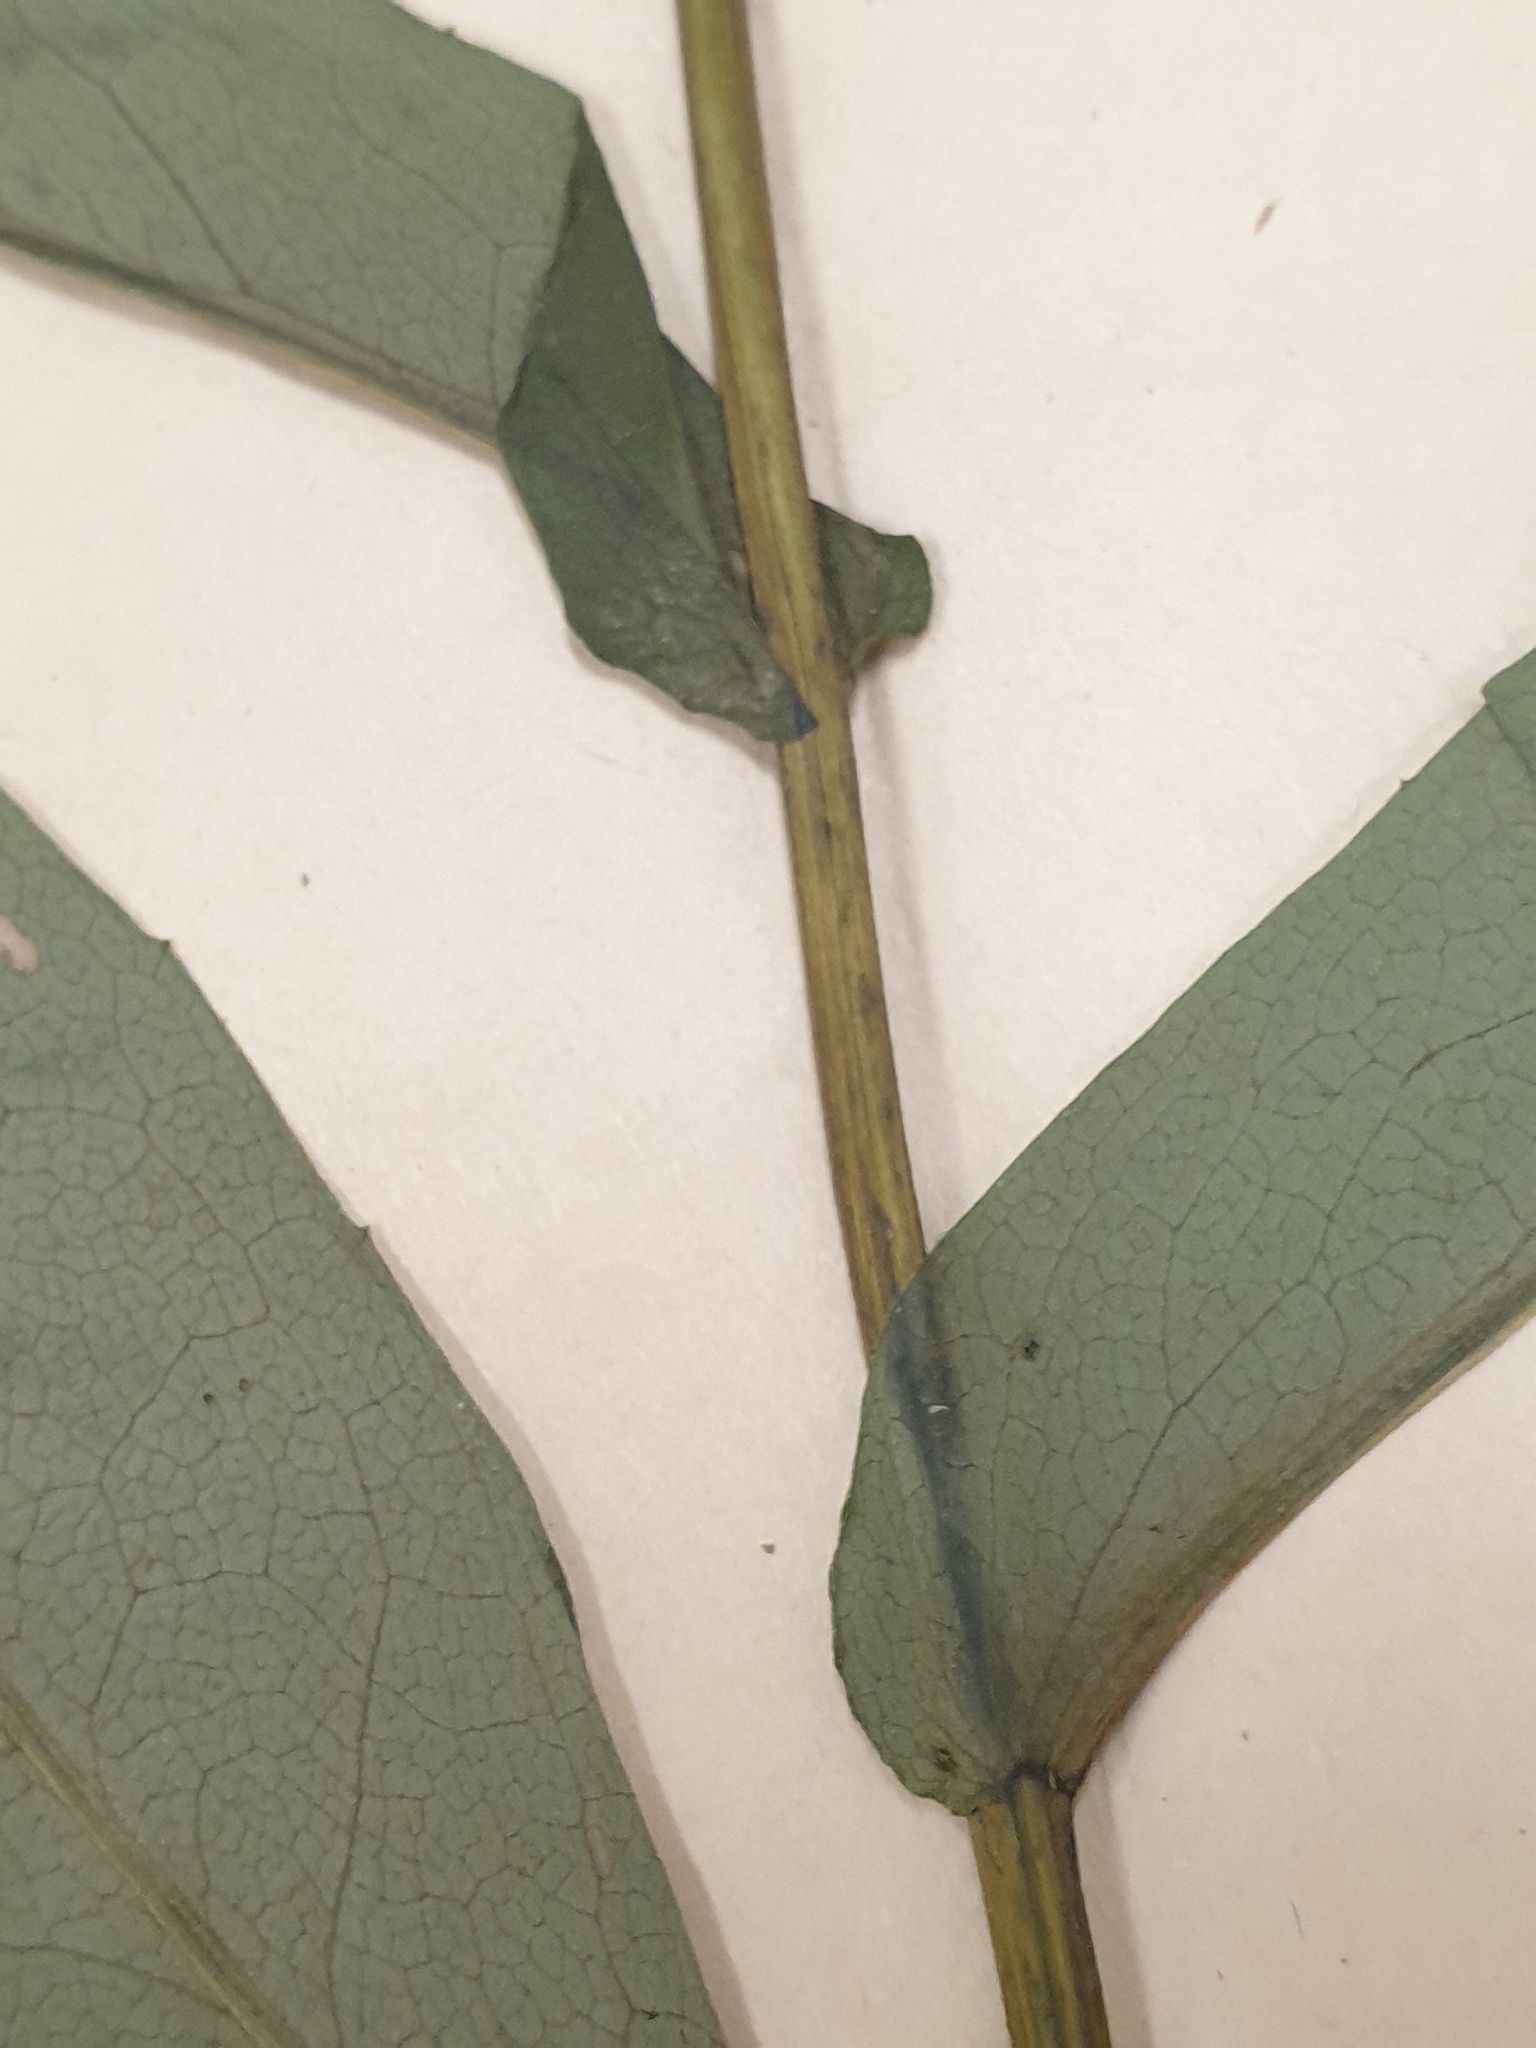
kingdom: Plantae
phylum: Tracheophyta
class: Magnoliopsida
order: Asterales
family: Asteraceae
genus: Symphyotrichum
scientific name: Symphyotrichum puniceum
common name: Bog aster
